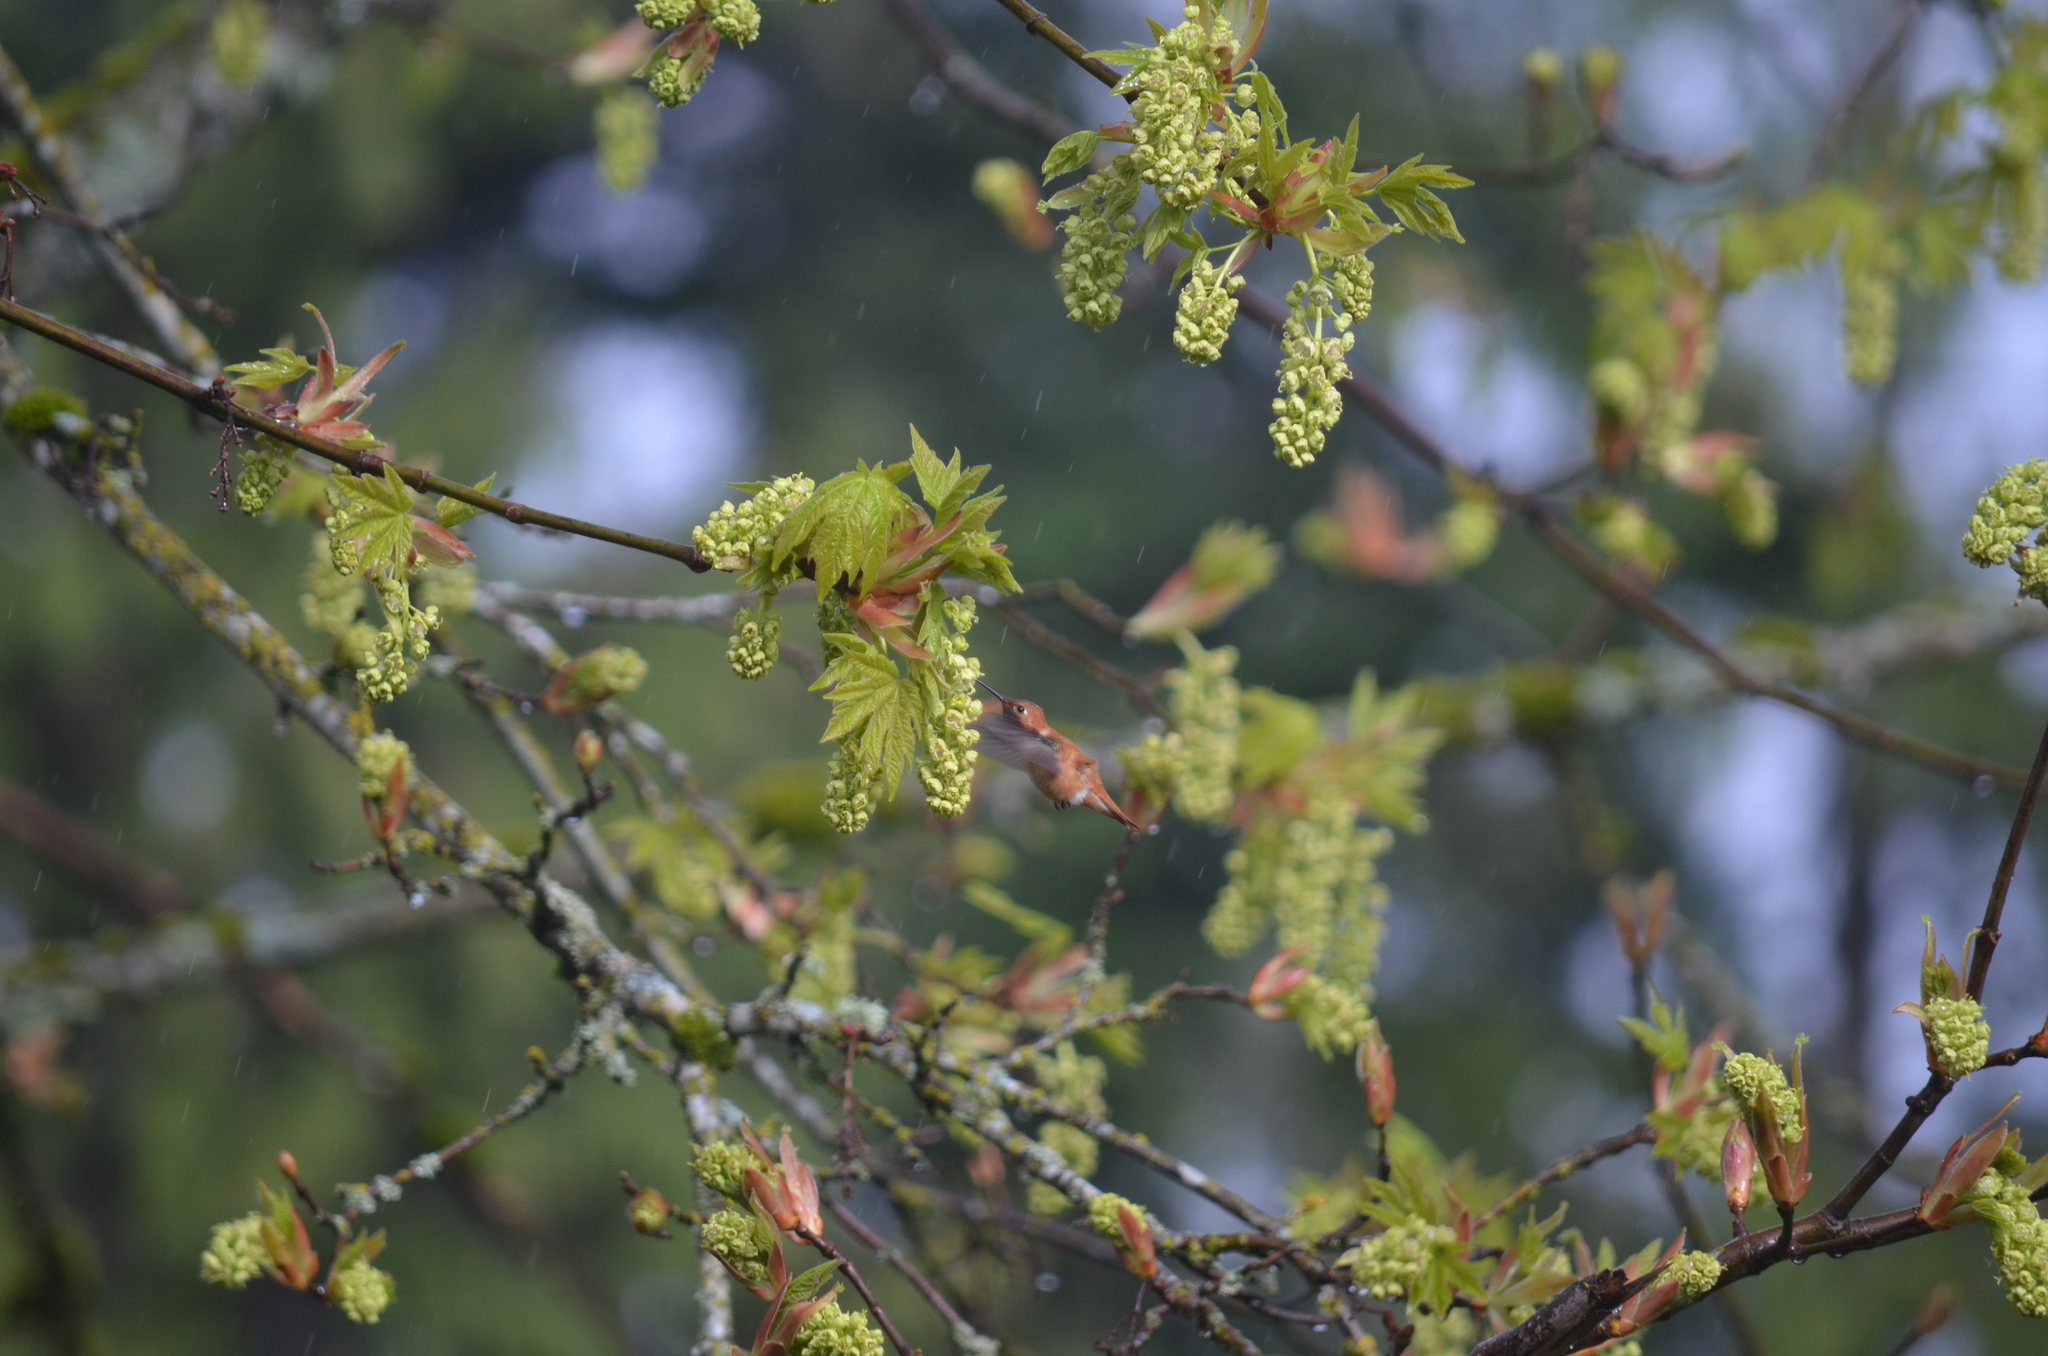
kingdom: Animalia
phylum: Chordata
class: Aves
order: Apodiformes
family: Trochilidae
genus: Selasphorus
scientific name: Selasphorus rufus
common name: Rufous hummingbird
